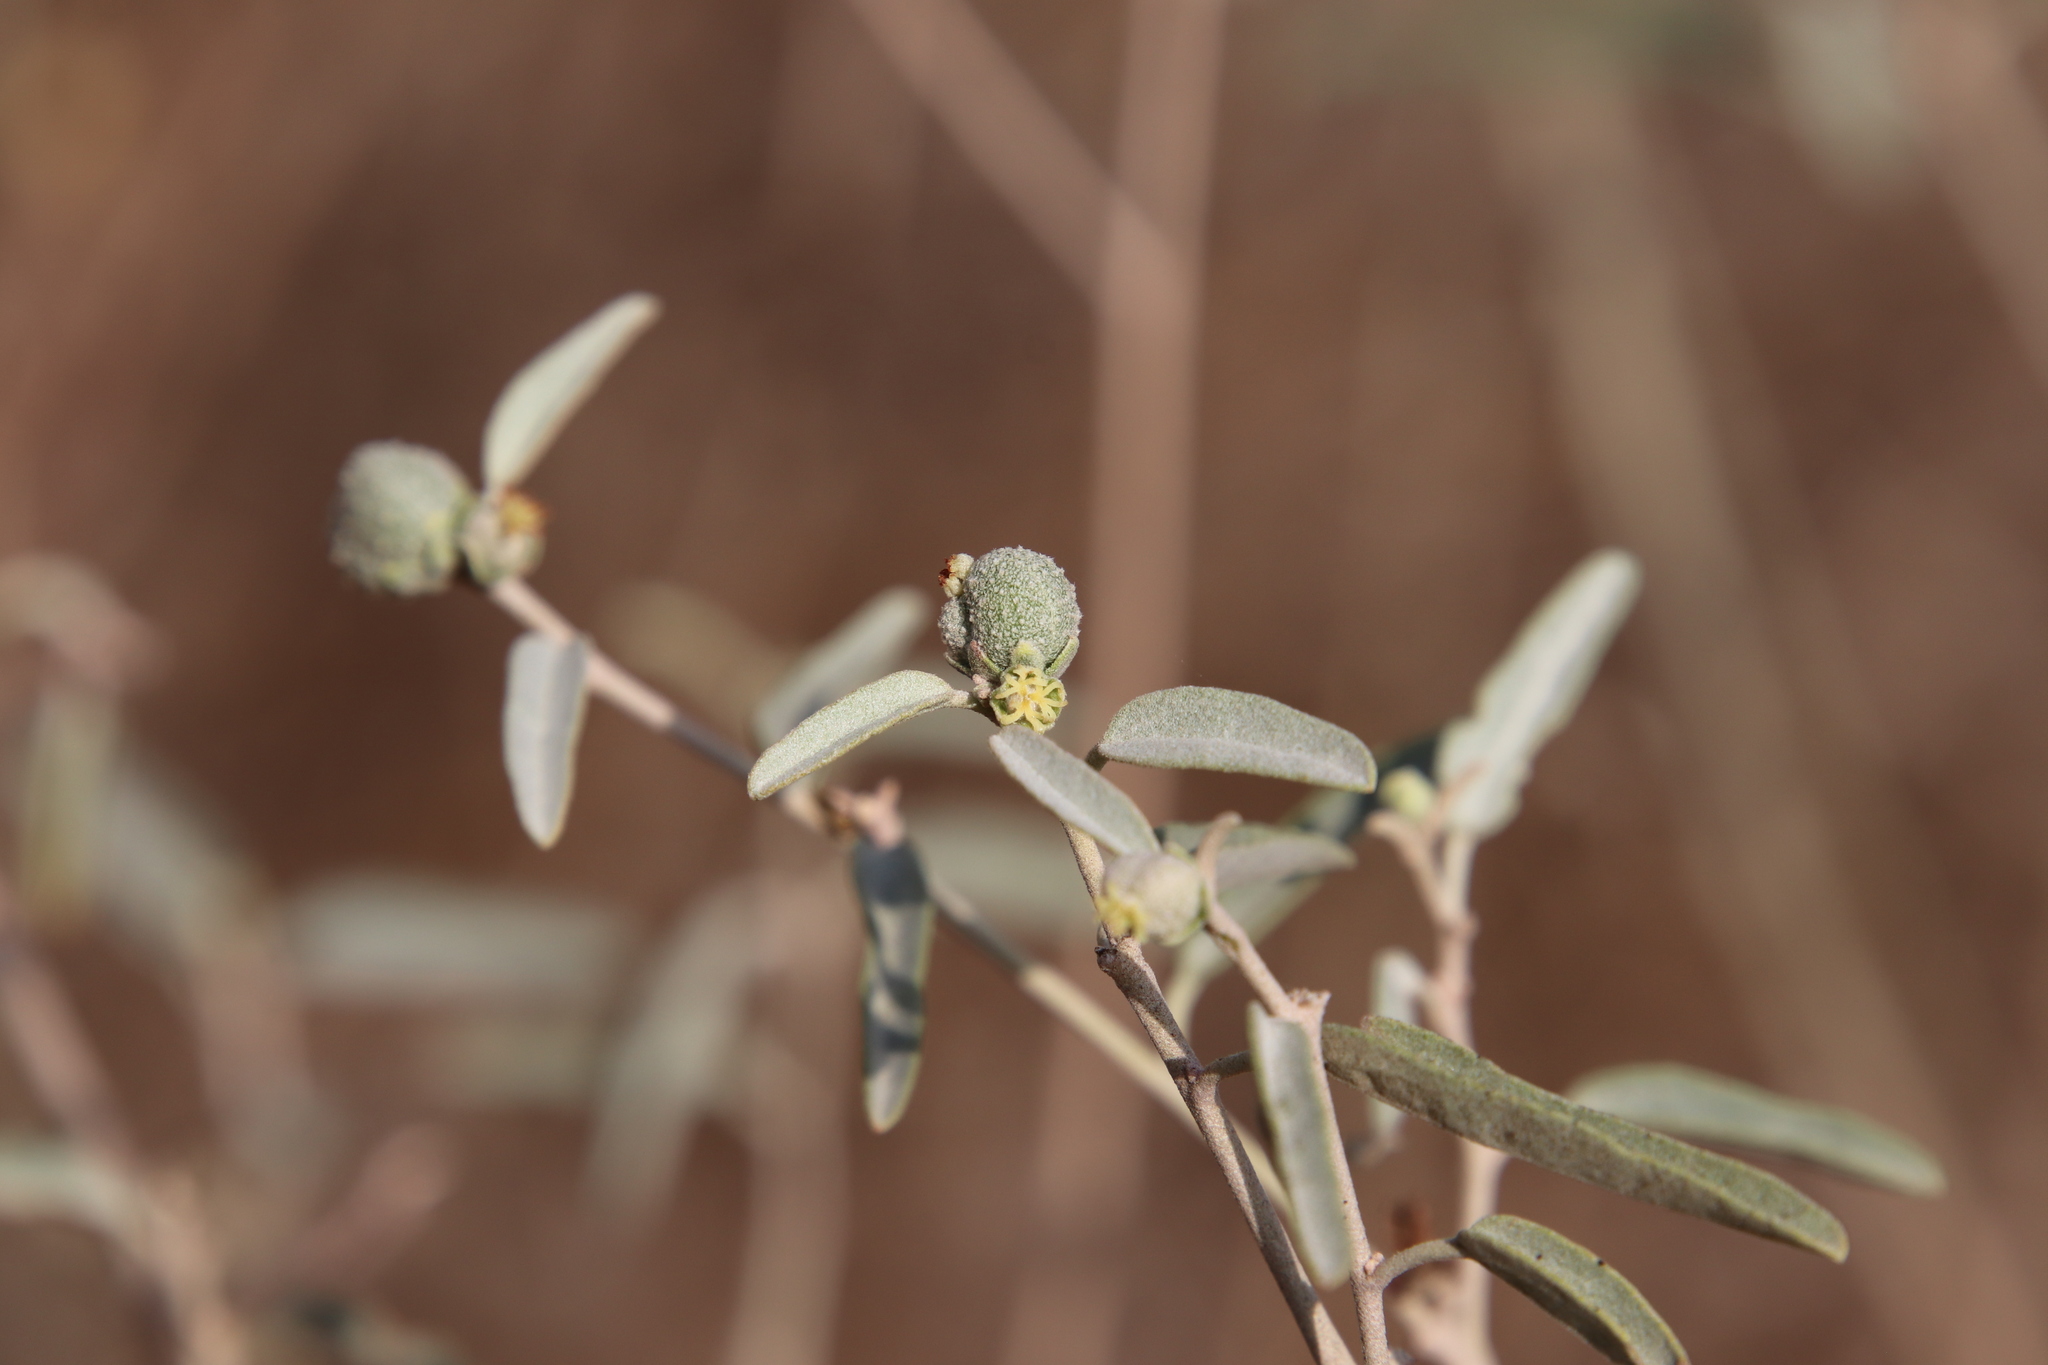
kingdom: Plantae
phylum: Tracheophyta
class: Magnoliopsida
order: Malpighiales
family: Euphorbiaceae
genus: Croton
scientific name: Croton californicus
